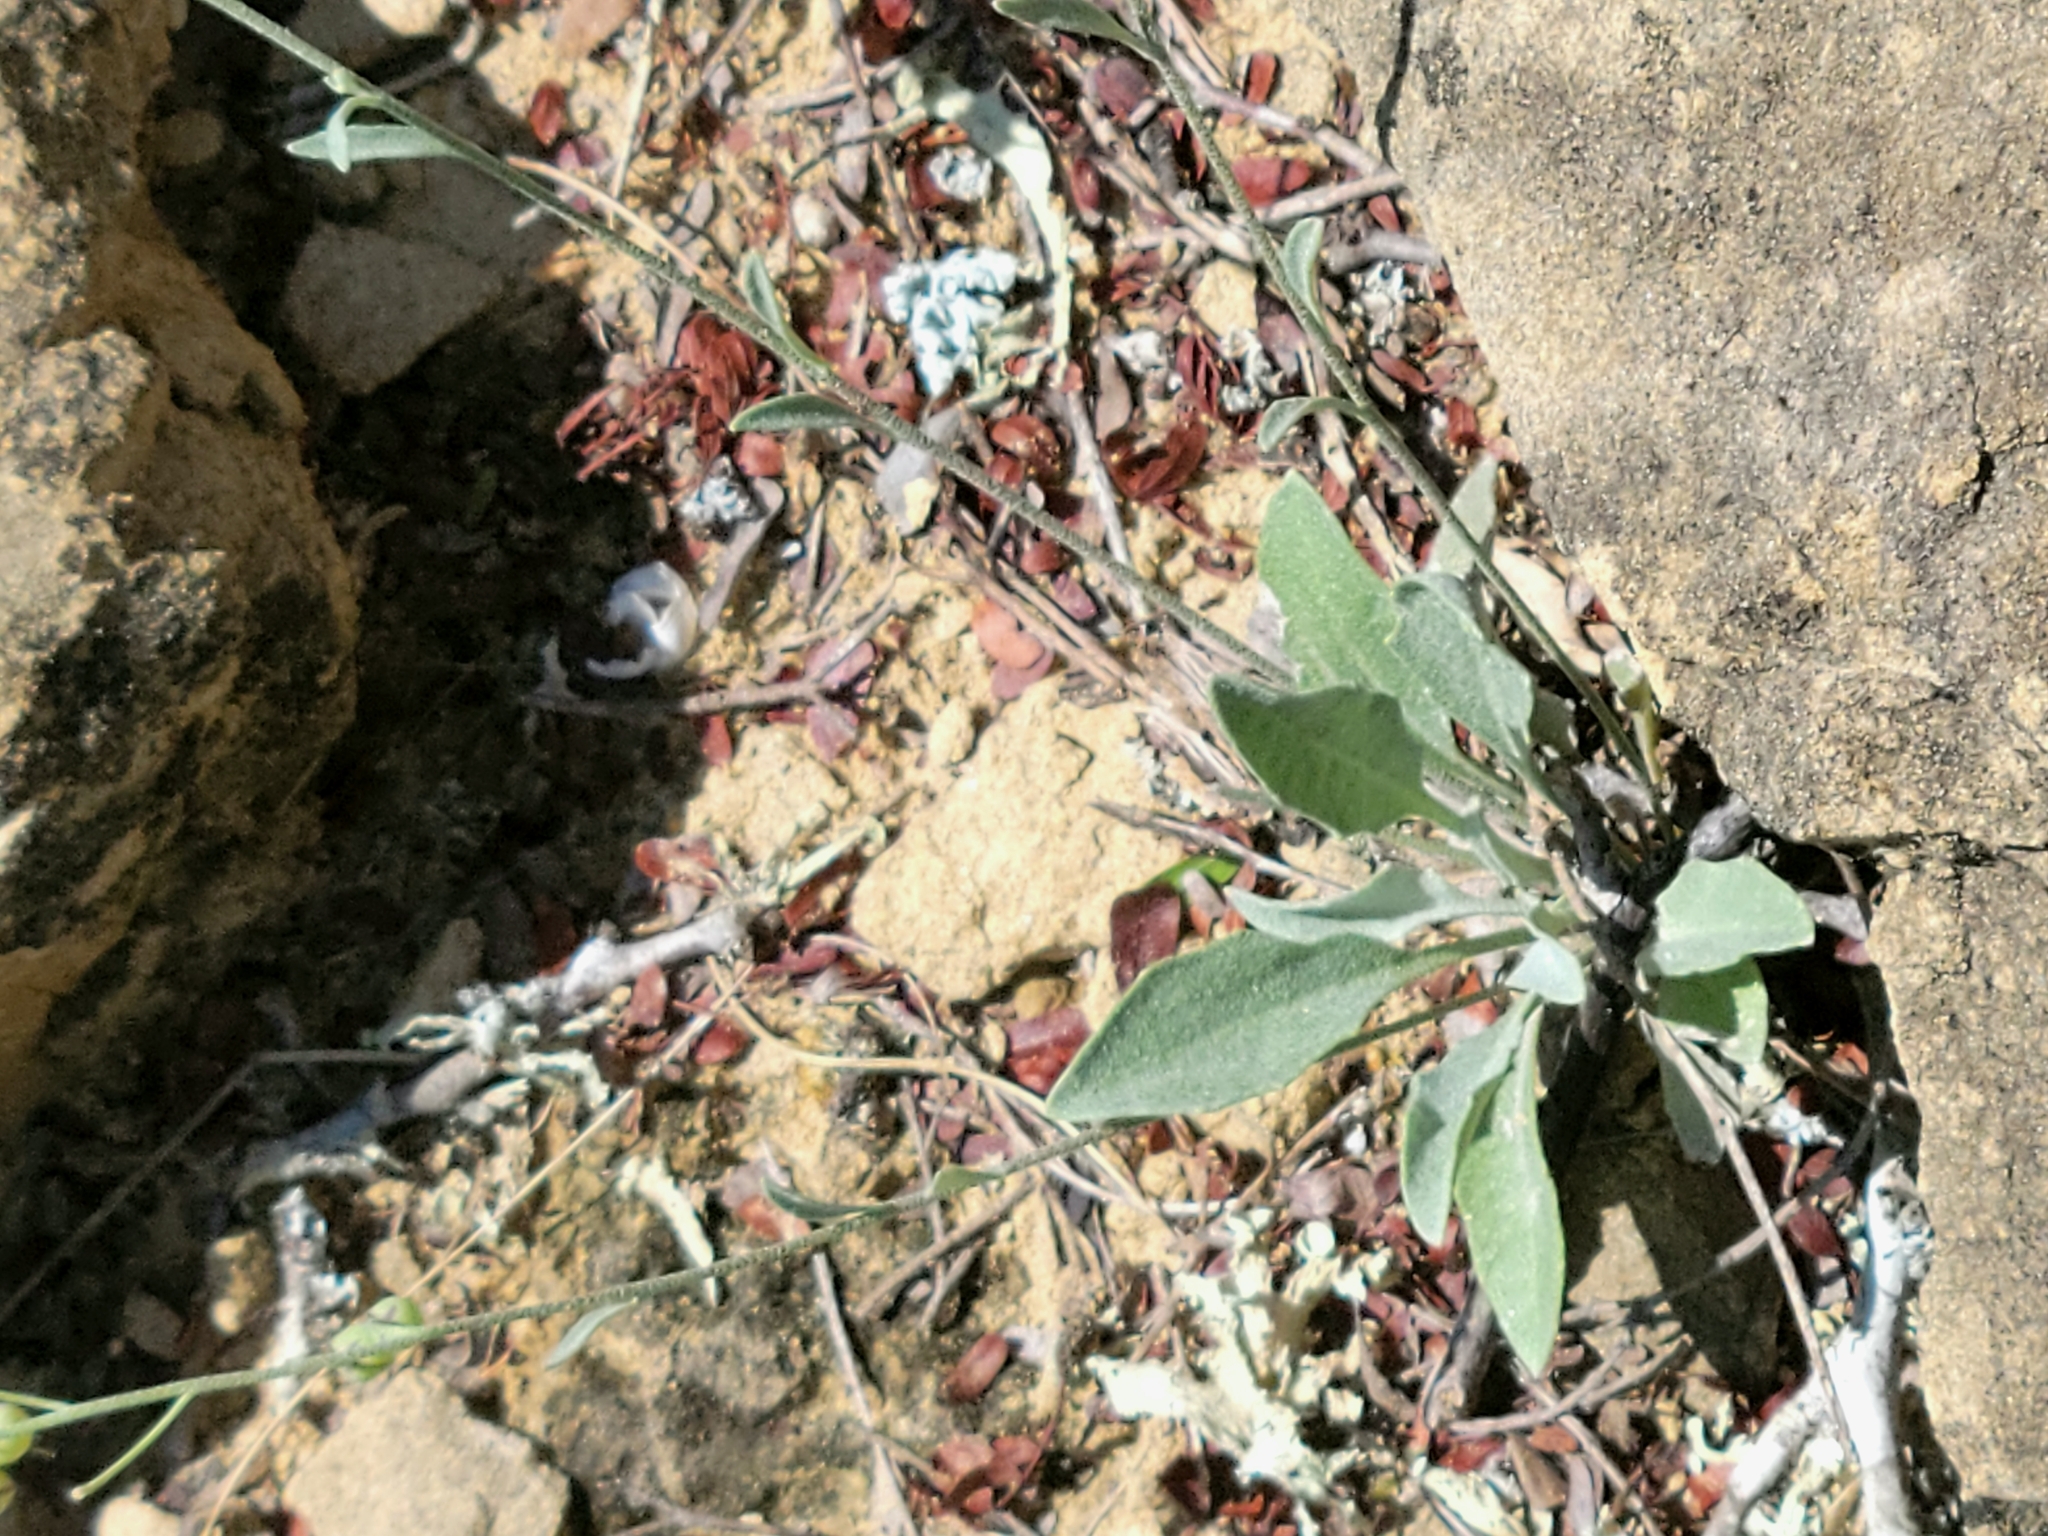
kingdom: Plantae
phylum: Tracheophyta
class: Magnoliopsida
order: Brassicales
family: Brassicaceae
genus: Physaria
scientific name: Physaria thamnophila
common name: Zapata bladderpod
